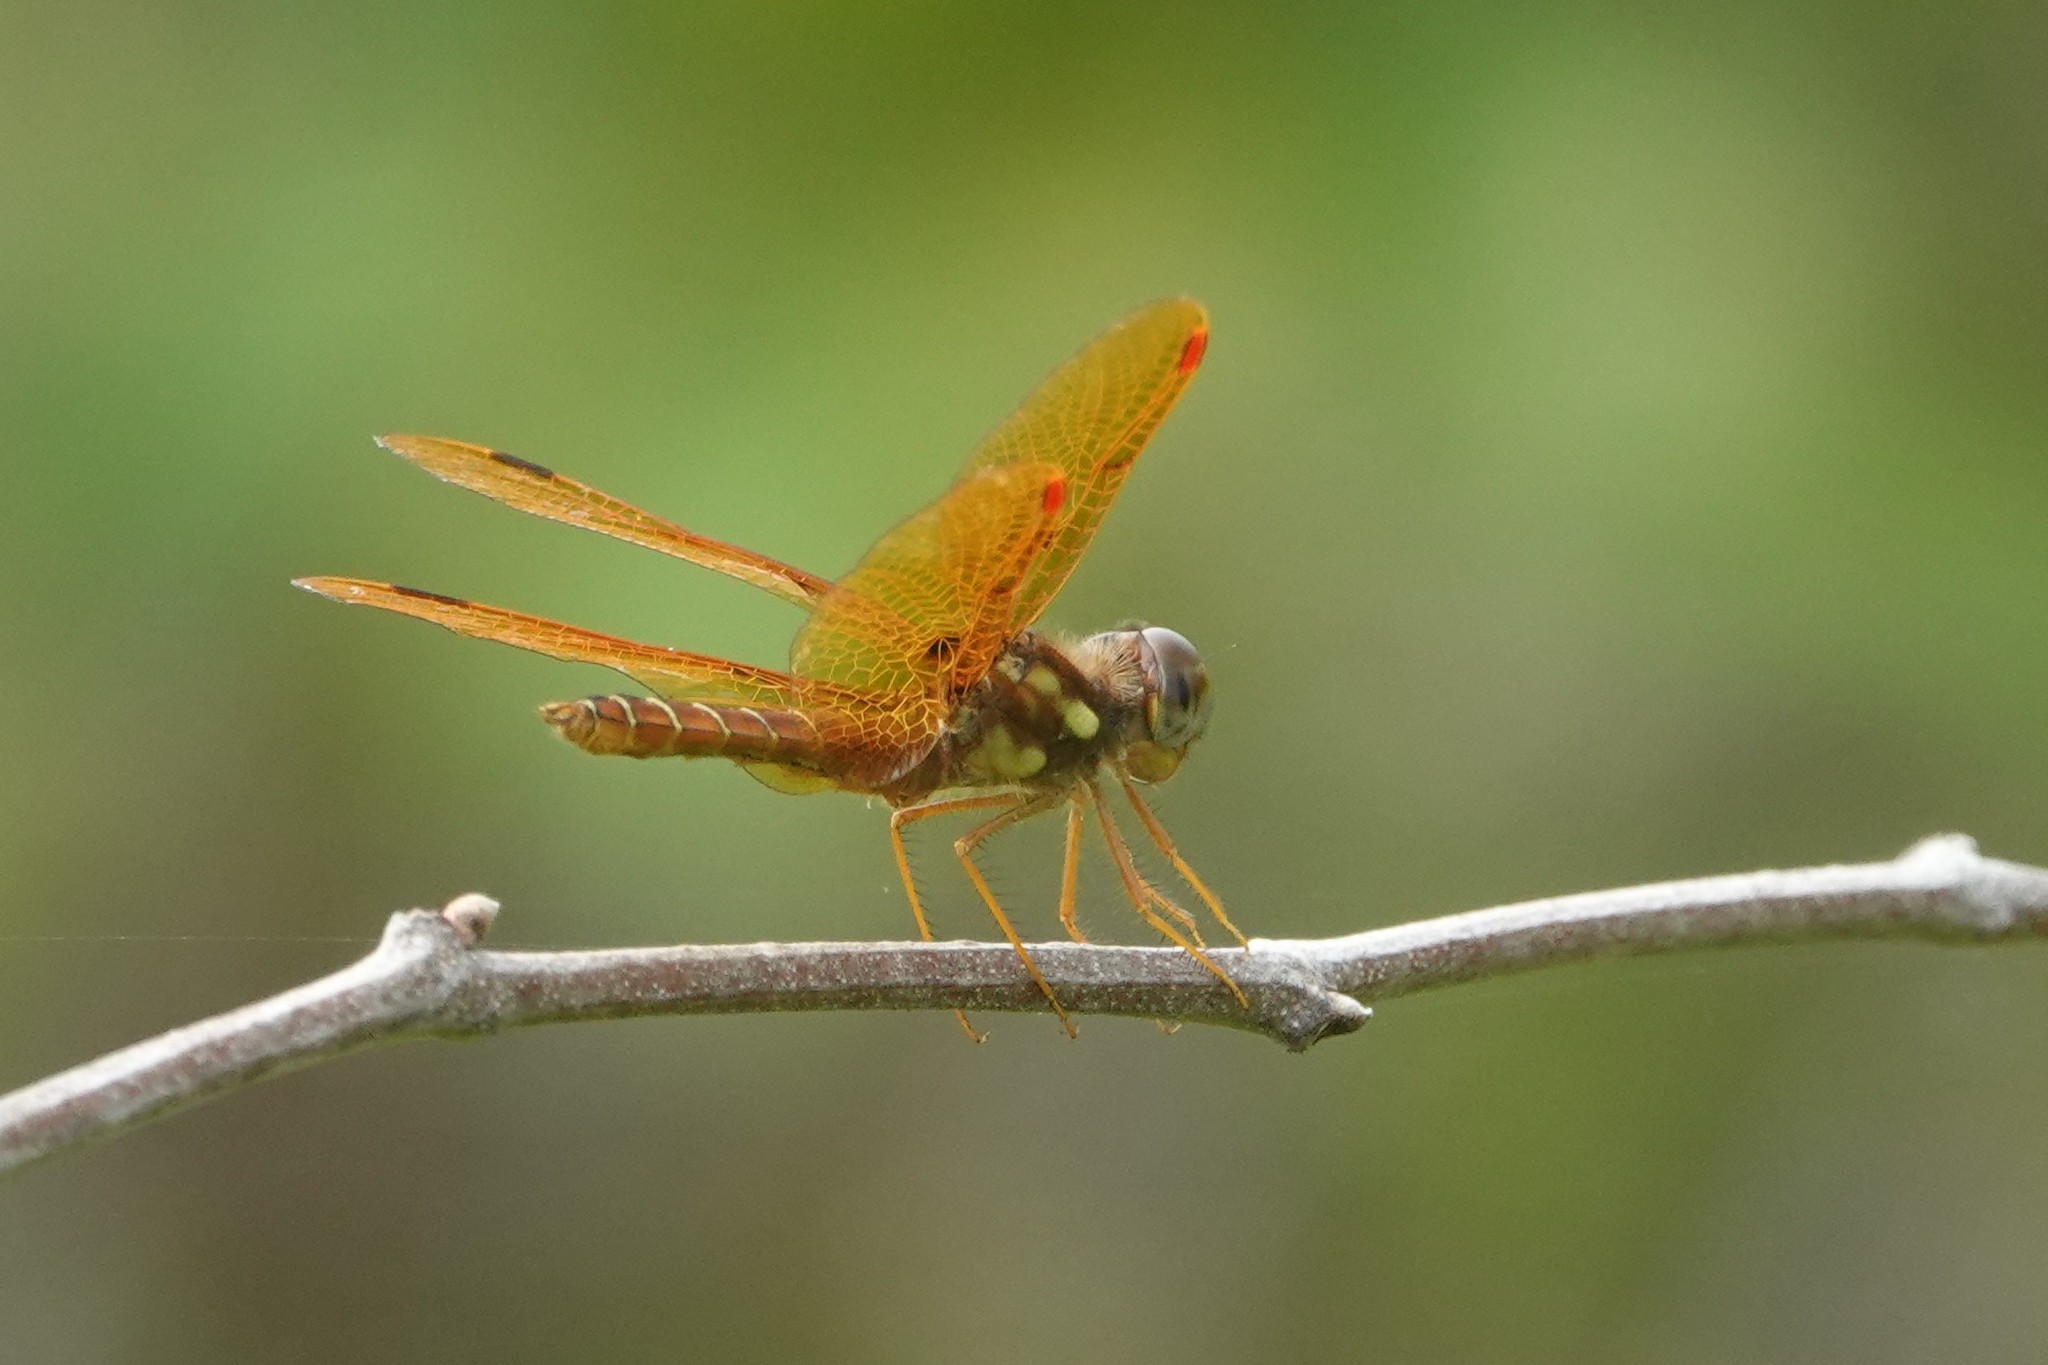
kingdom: Animalia
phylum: Arthropoda
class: Insecta
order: Odonata
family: Libellulidae
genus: Perithemis
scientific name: Perithemis tenera
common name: Eastern amberwing
